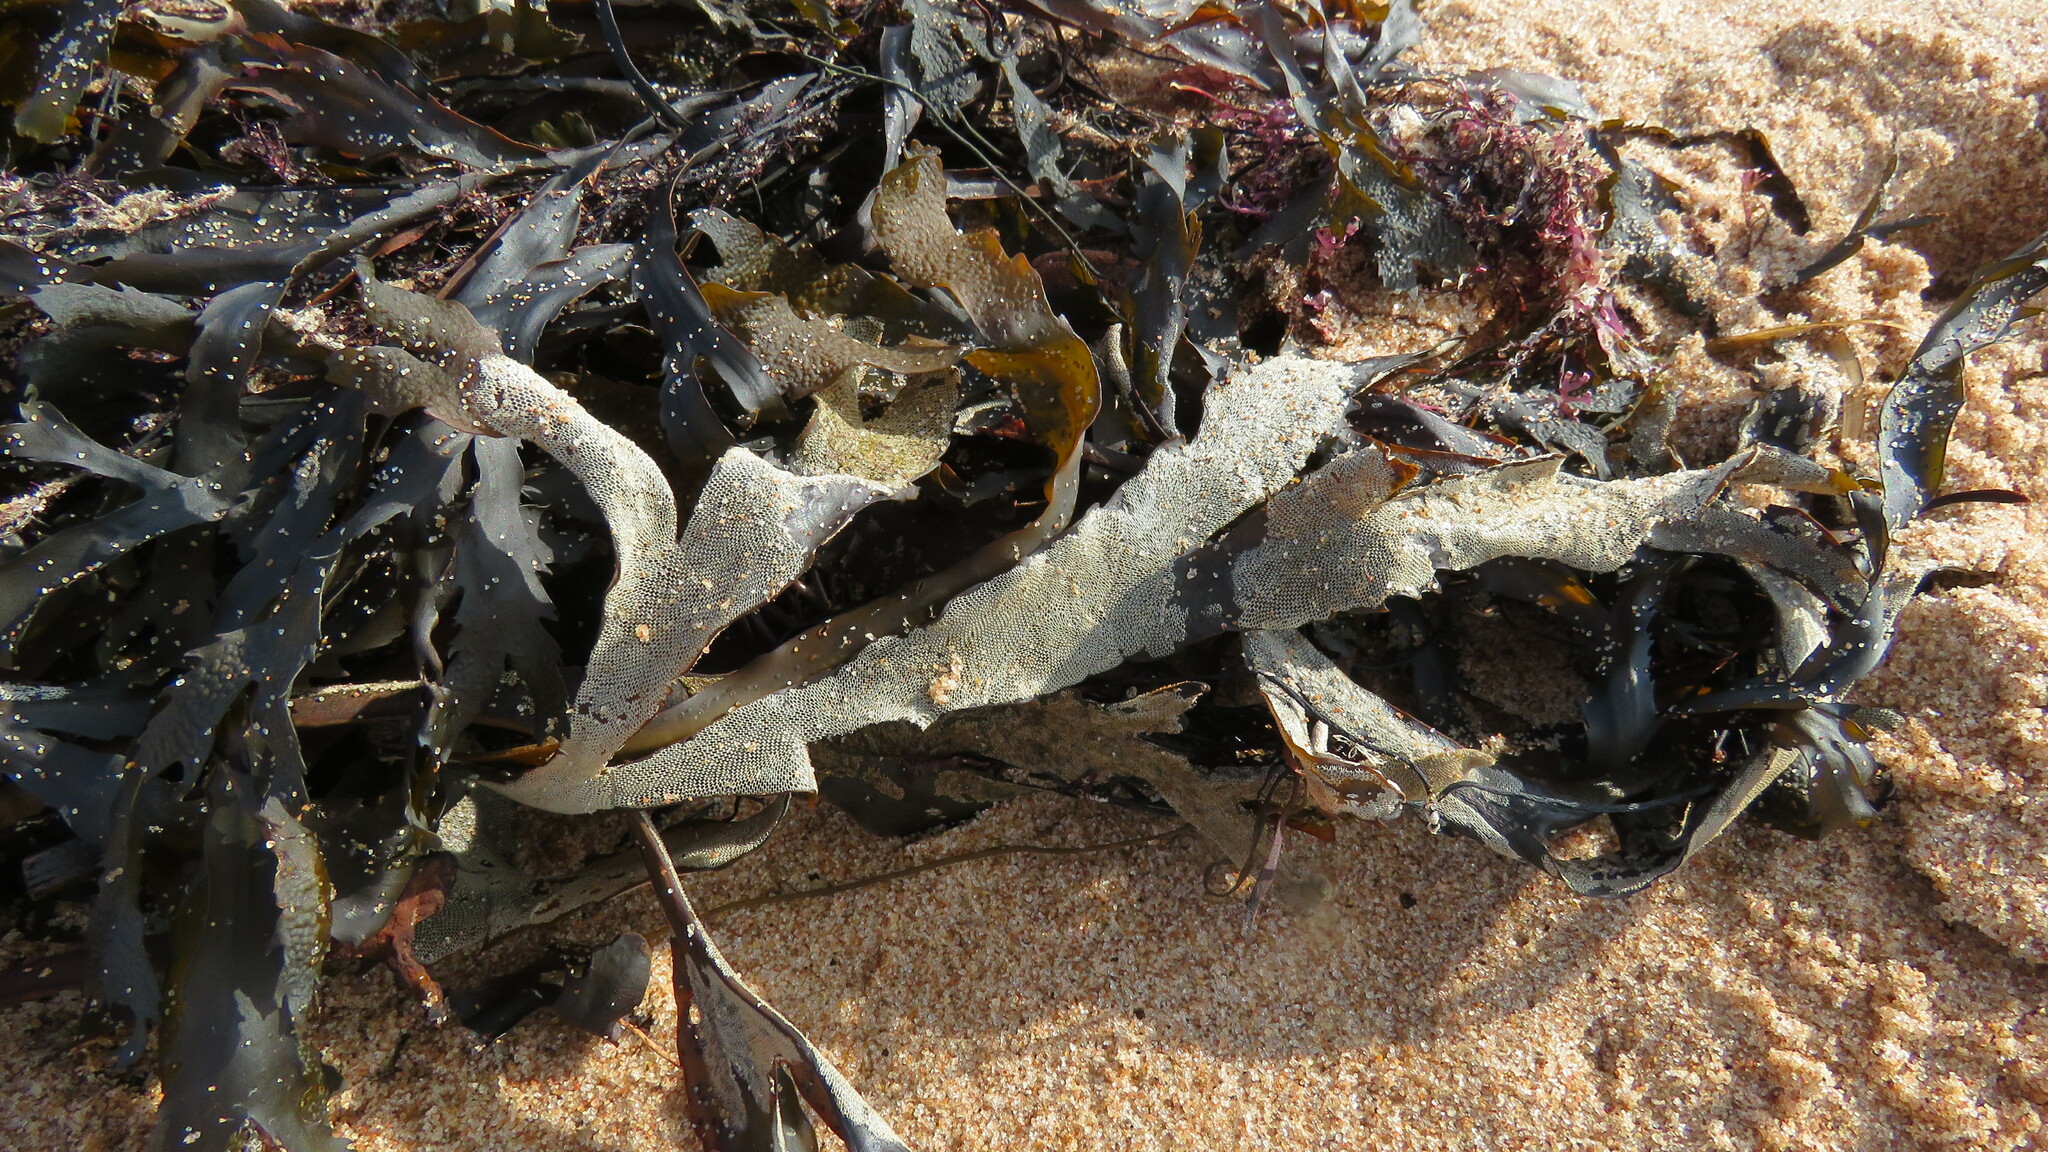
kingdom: Chromista
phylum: Ochrophyta
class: Phaeophyceae
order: Fucales
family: Fucaceae
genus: Fucus
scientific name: Fucus serratus
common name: Toothed wrack
